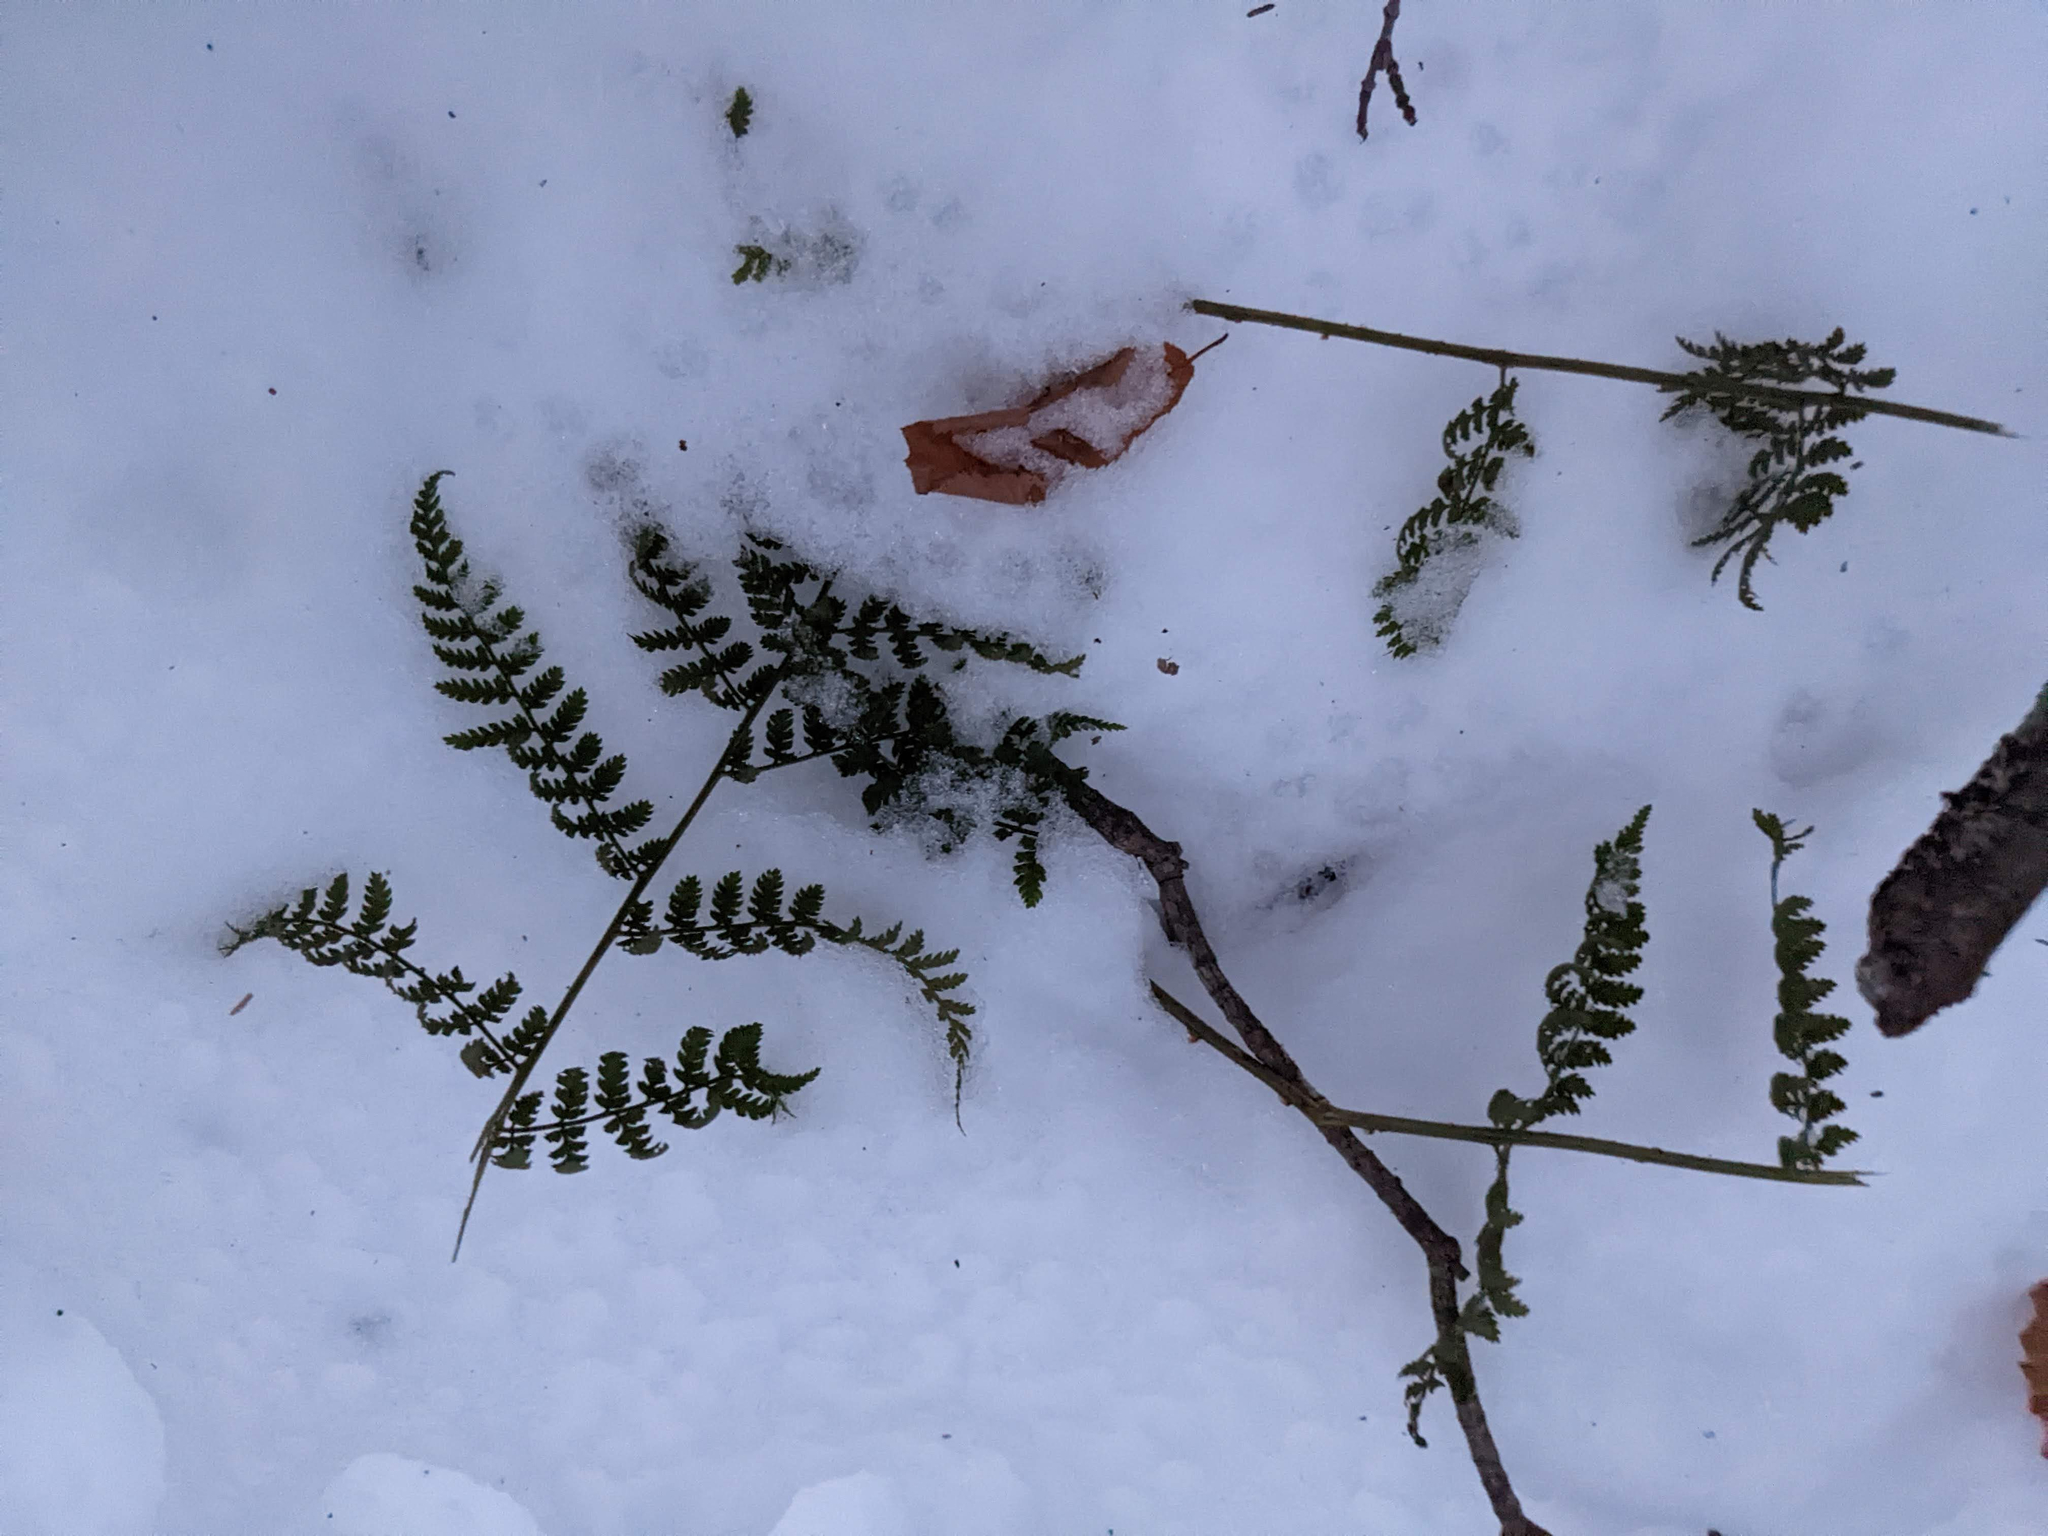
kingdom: Plantae
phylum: Tracheophyta
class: Polypodiopsida
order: Polypodiales
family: Dryopteridaceae
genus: Dryopteris
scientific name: Dryopteris intermedia
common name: Evergreen wood fern
